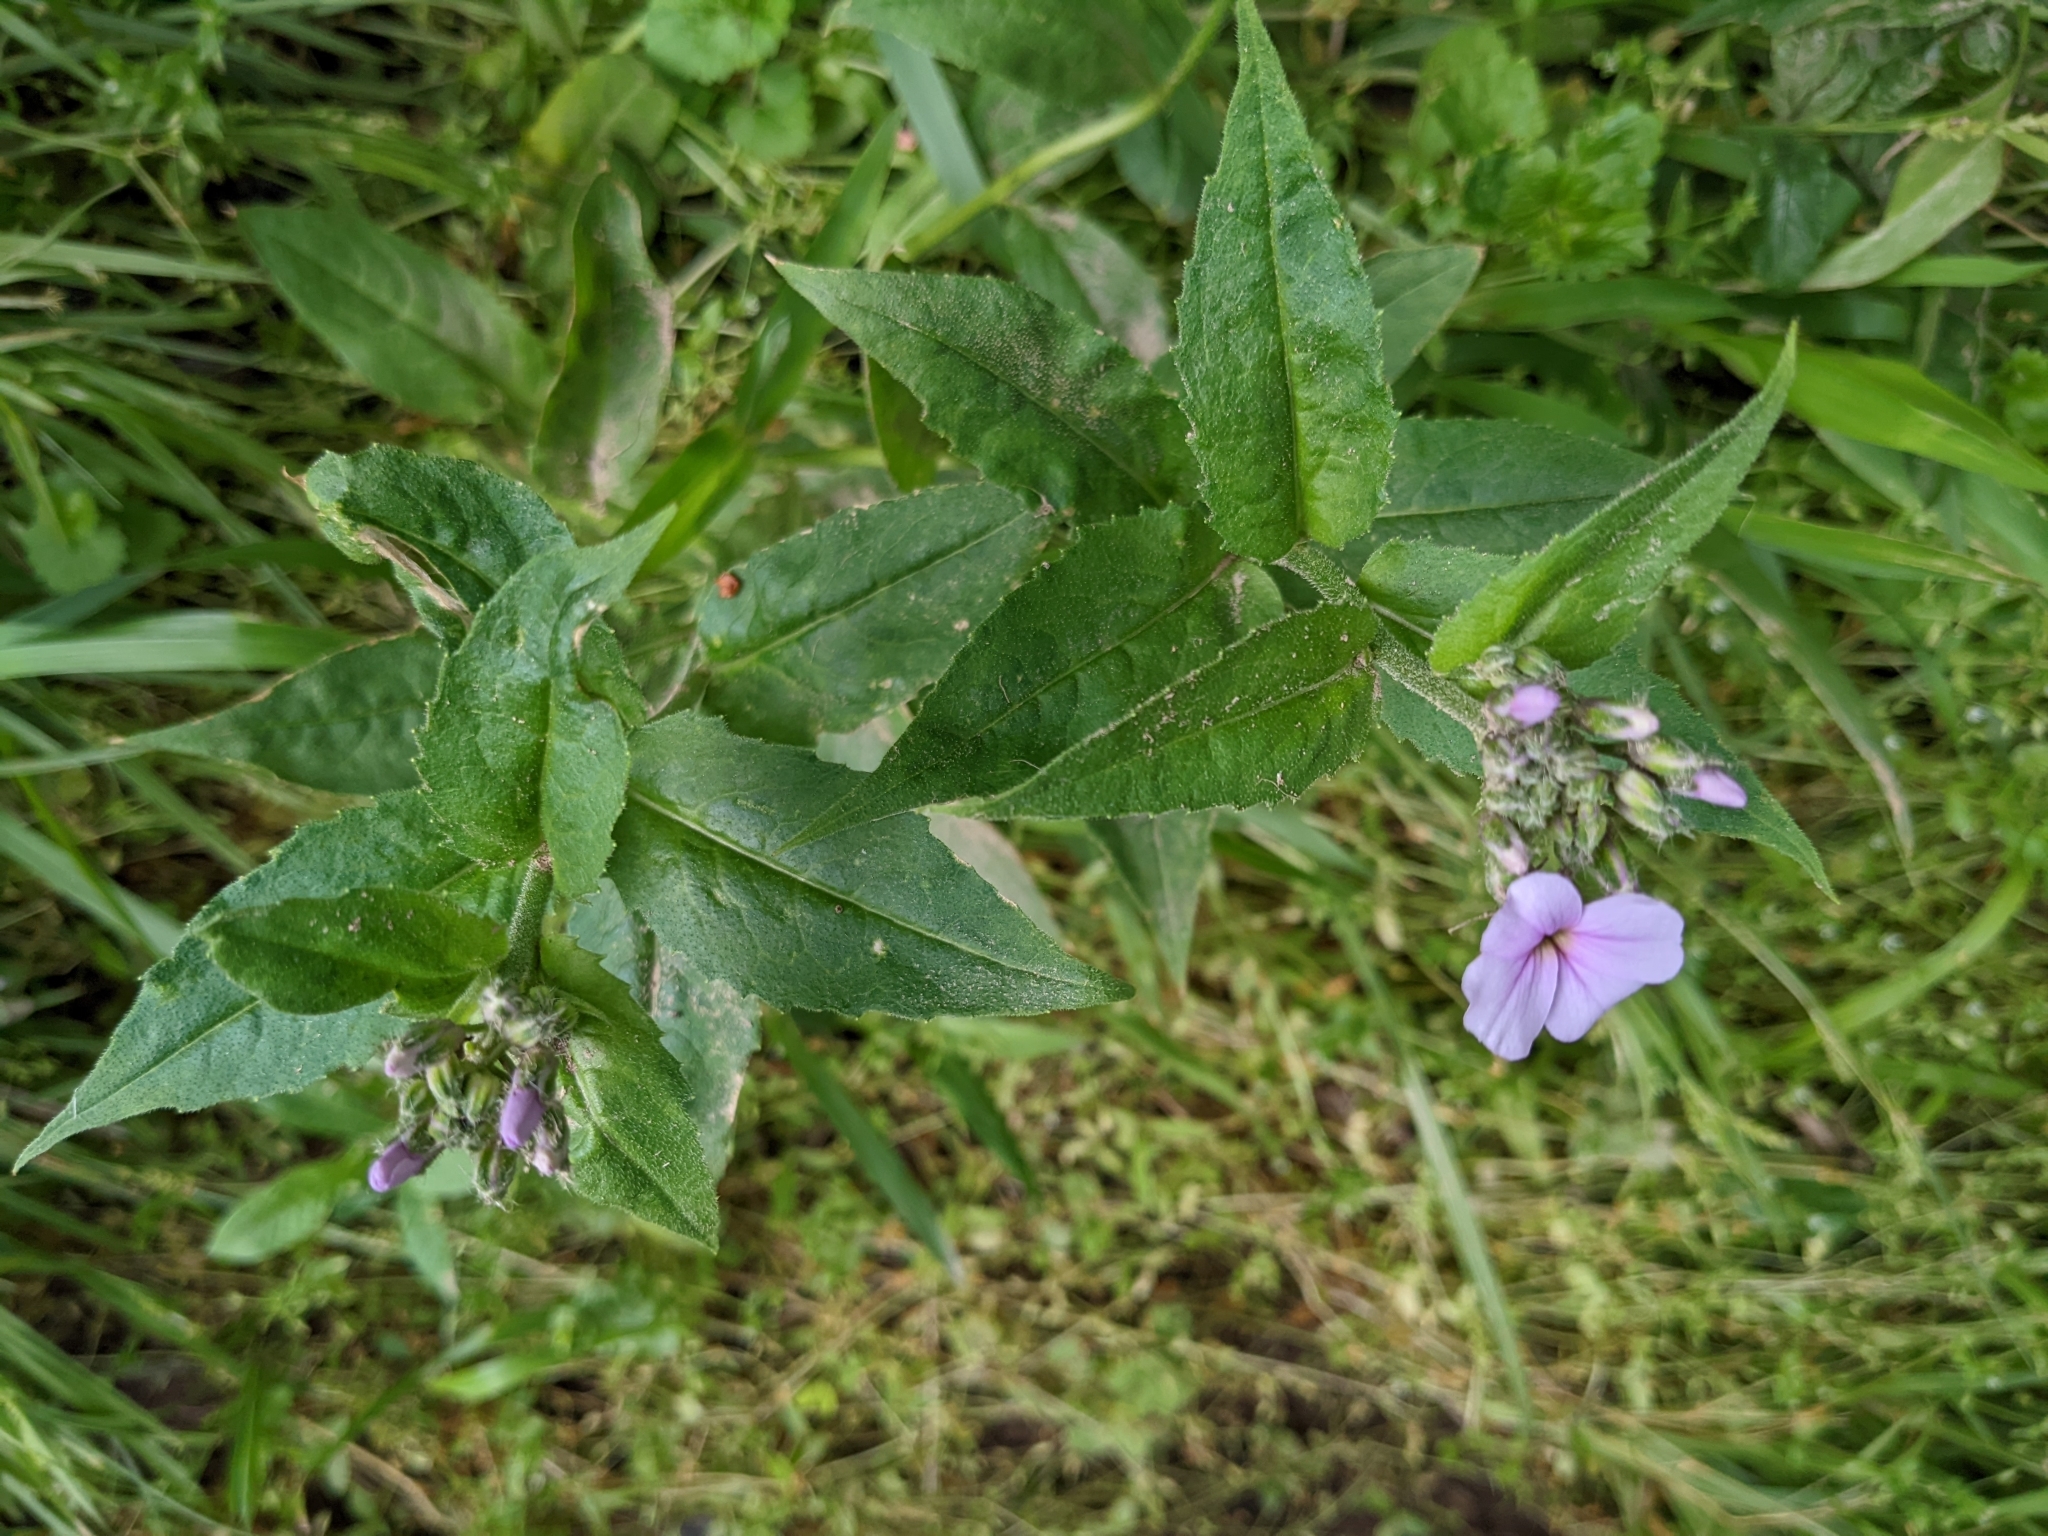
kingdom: Plantae
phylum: Tracheophyta
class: Magnoliopsida
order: Brassicales
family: Brassicaceae
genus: Hesperis
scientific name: Hesperis matronalis
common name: Dame's-violet
